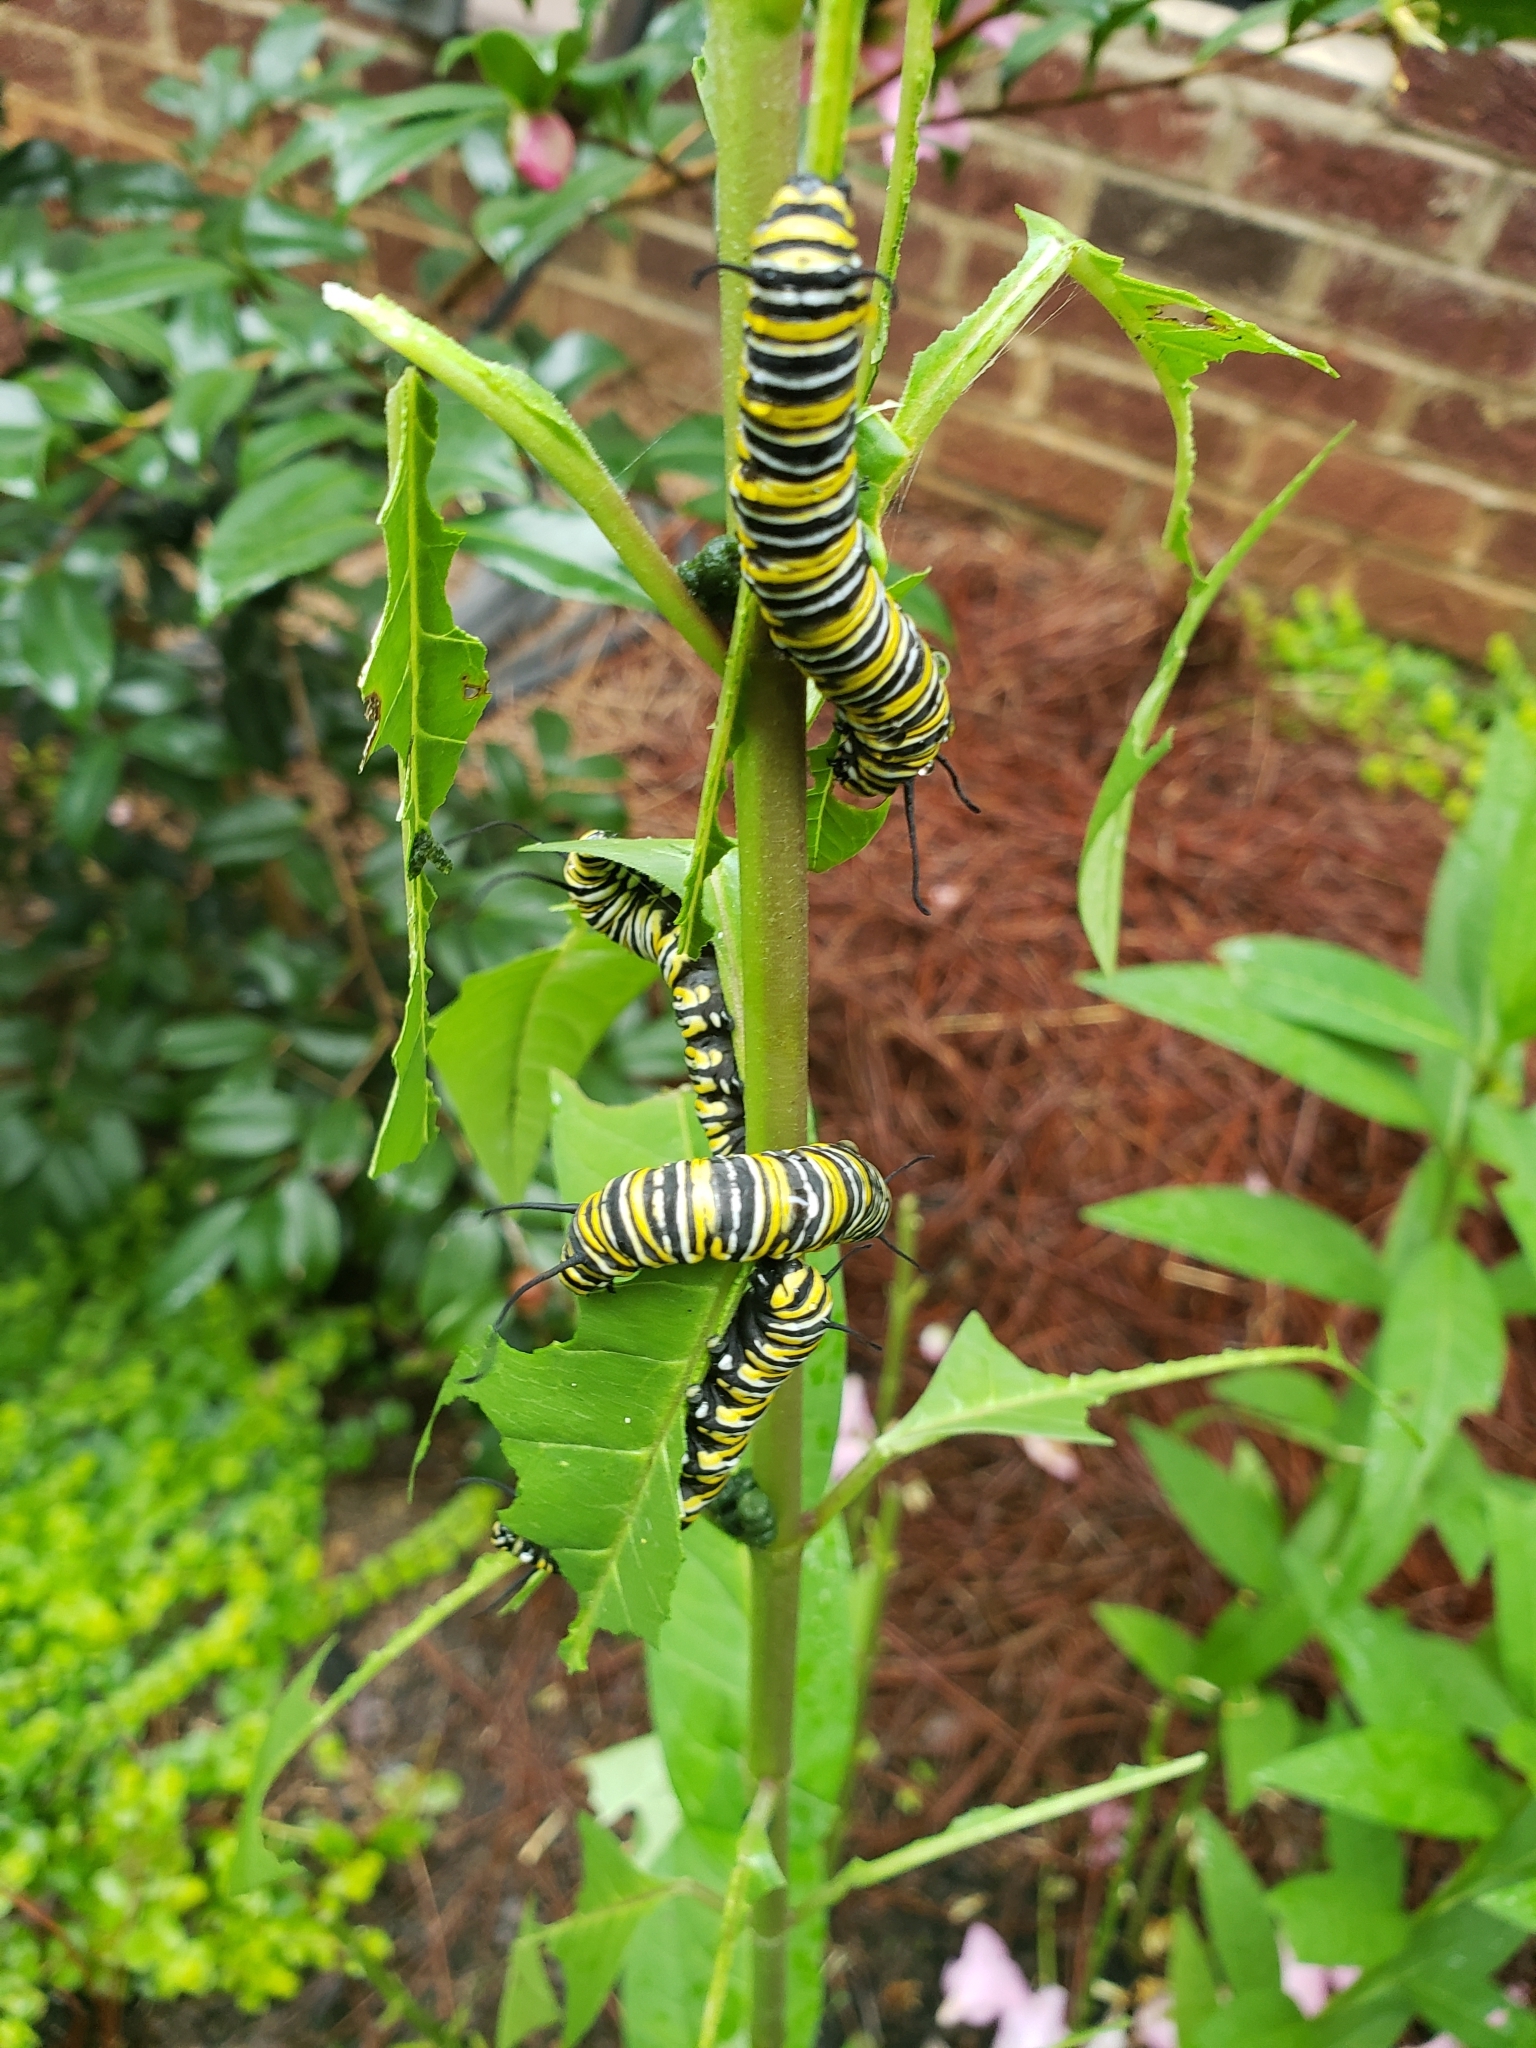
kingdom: Animalia
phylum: Arthropoda
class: Insecta
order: Lepidoptera
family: Nymphalidae
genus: Danaus
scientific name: Danaus plexippus
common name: Monarch
